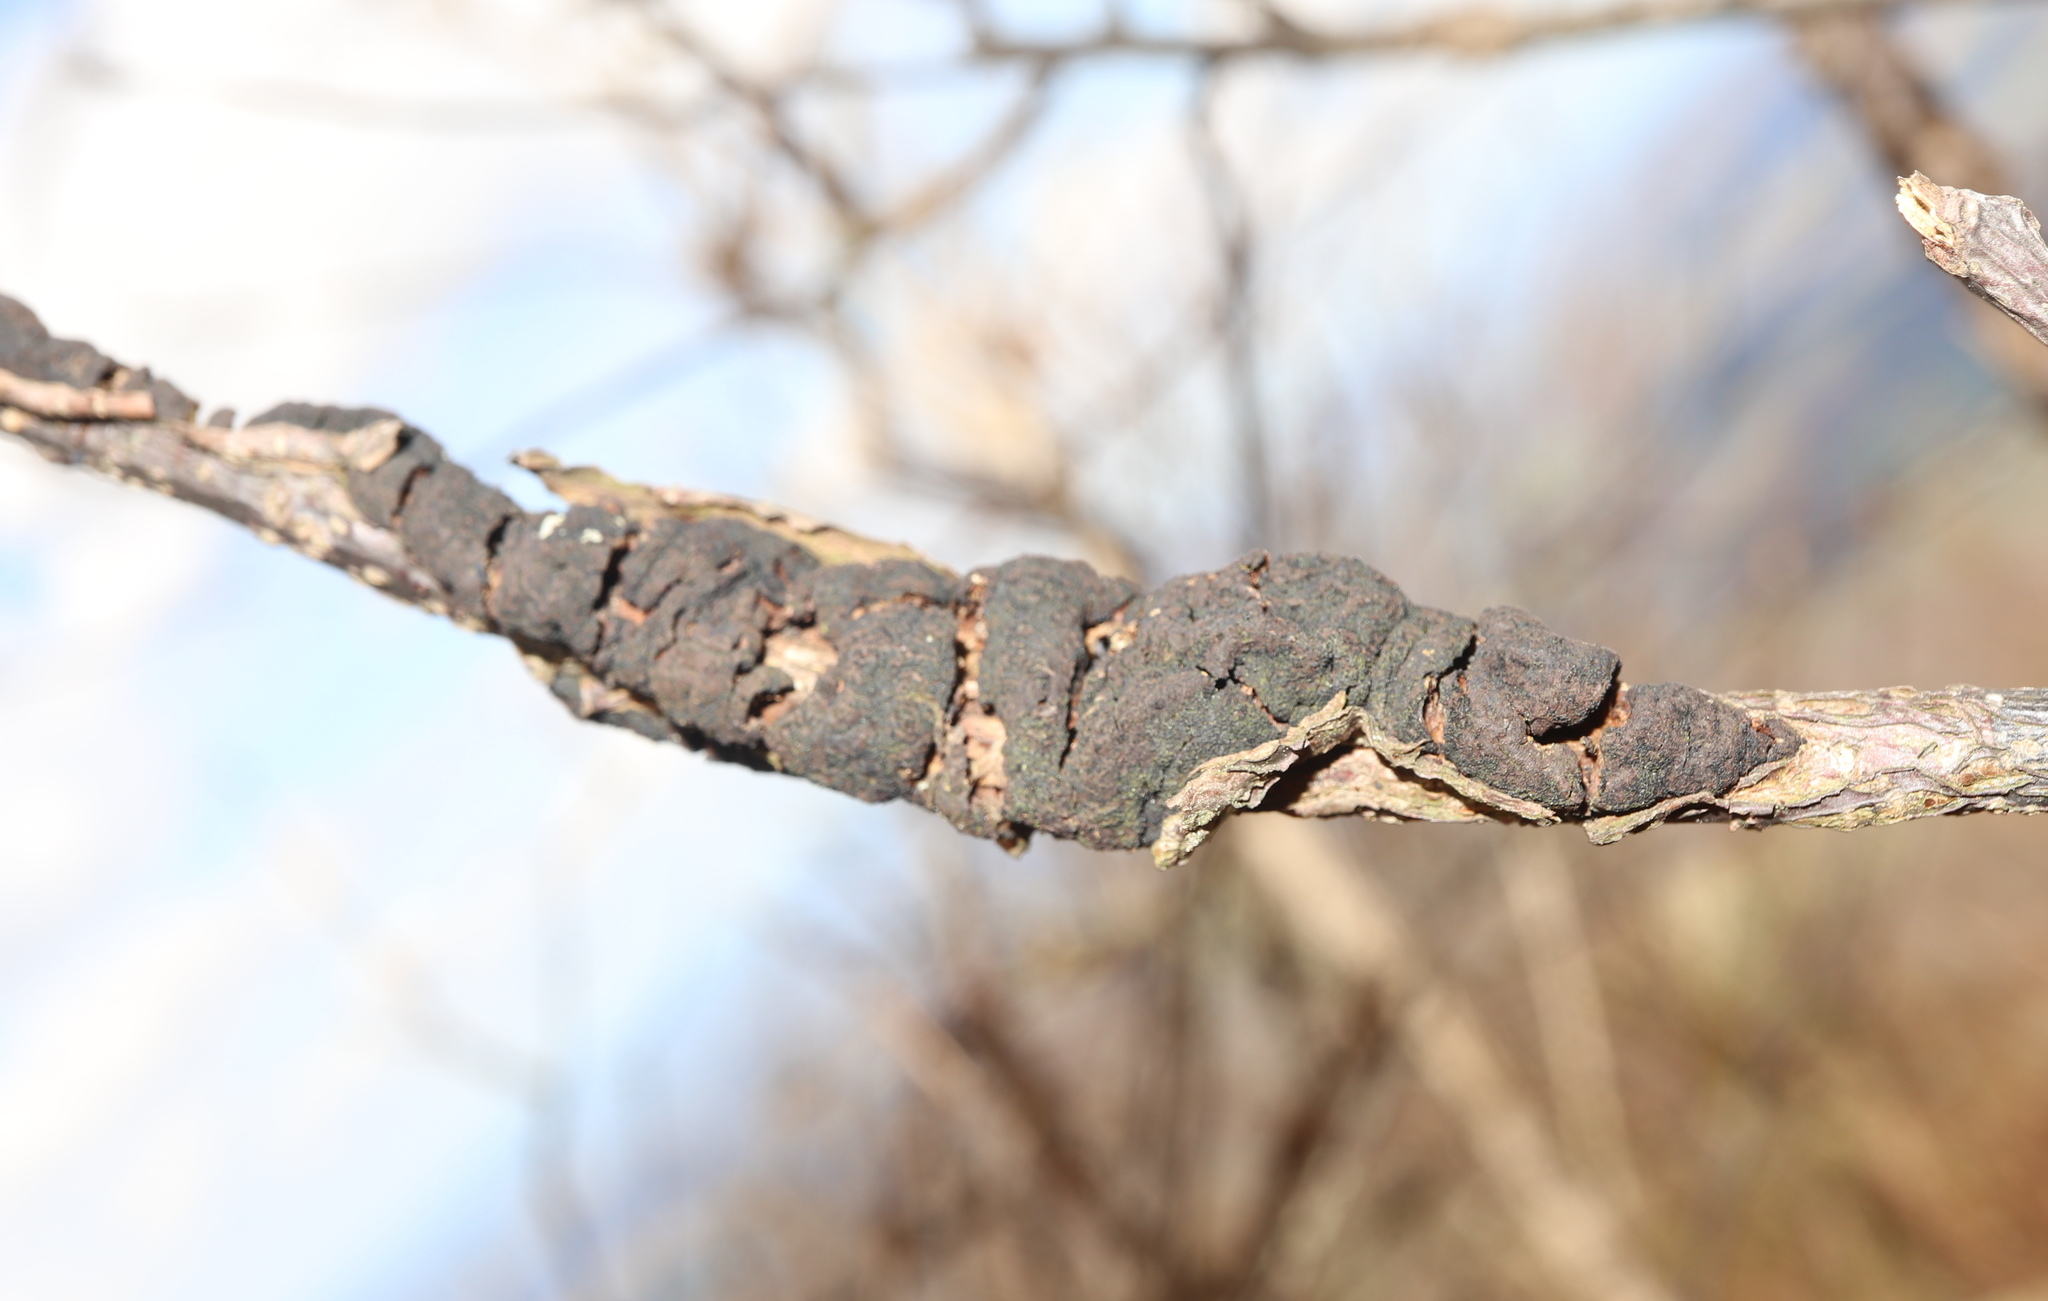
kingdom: Fungi
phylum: Ascomycota
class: Dothideomycetes
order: Venturiales
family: Venturiaceae
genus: Apiosporina
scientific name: Apiosporina morbosa
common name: Black knot
